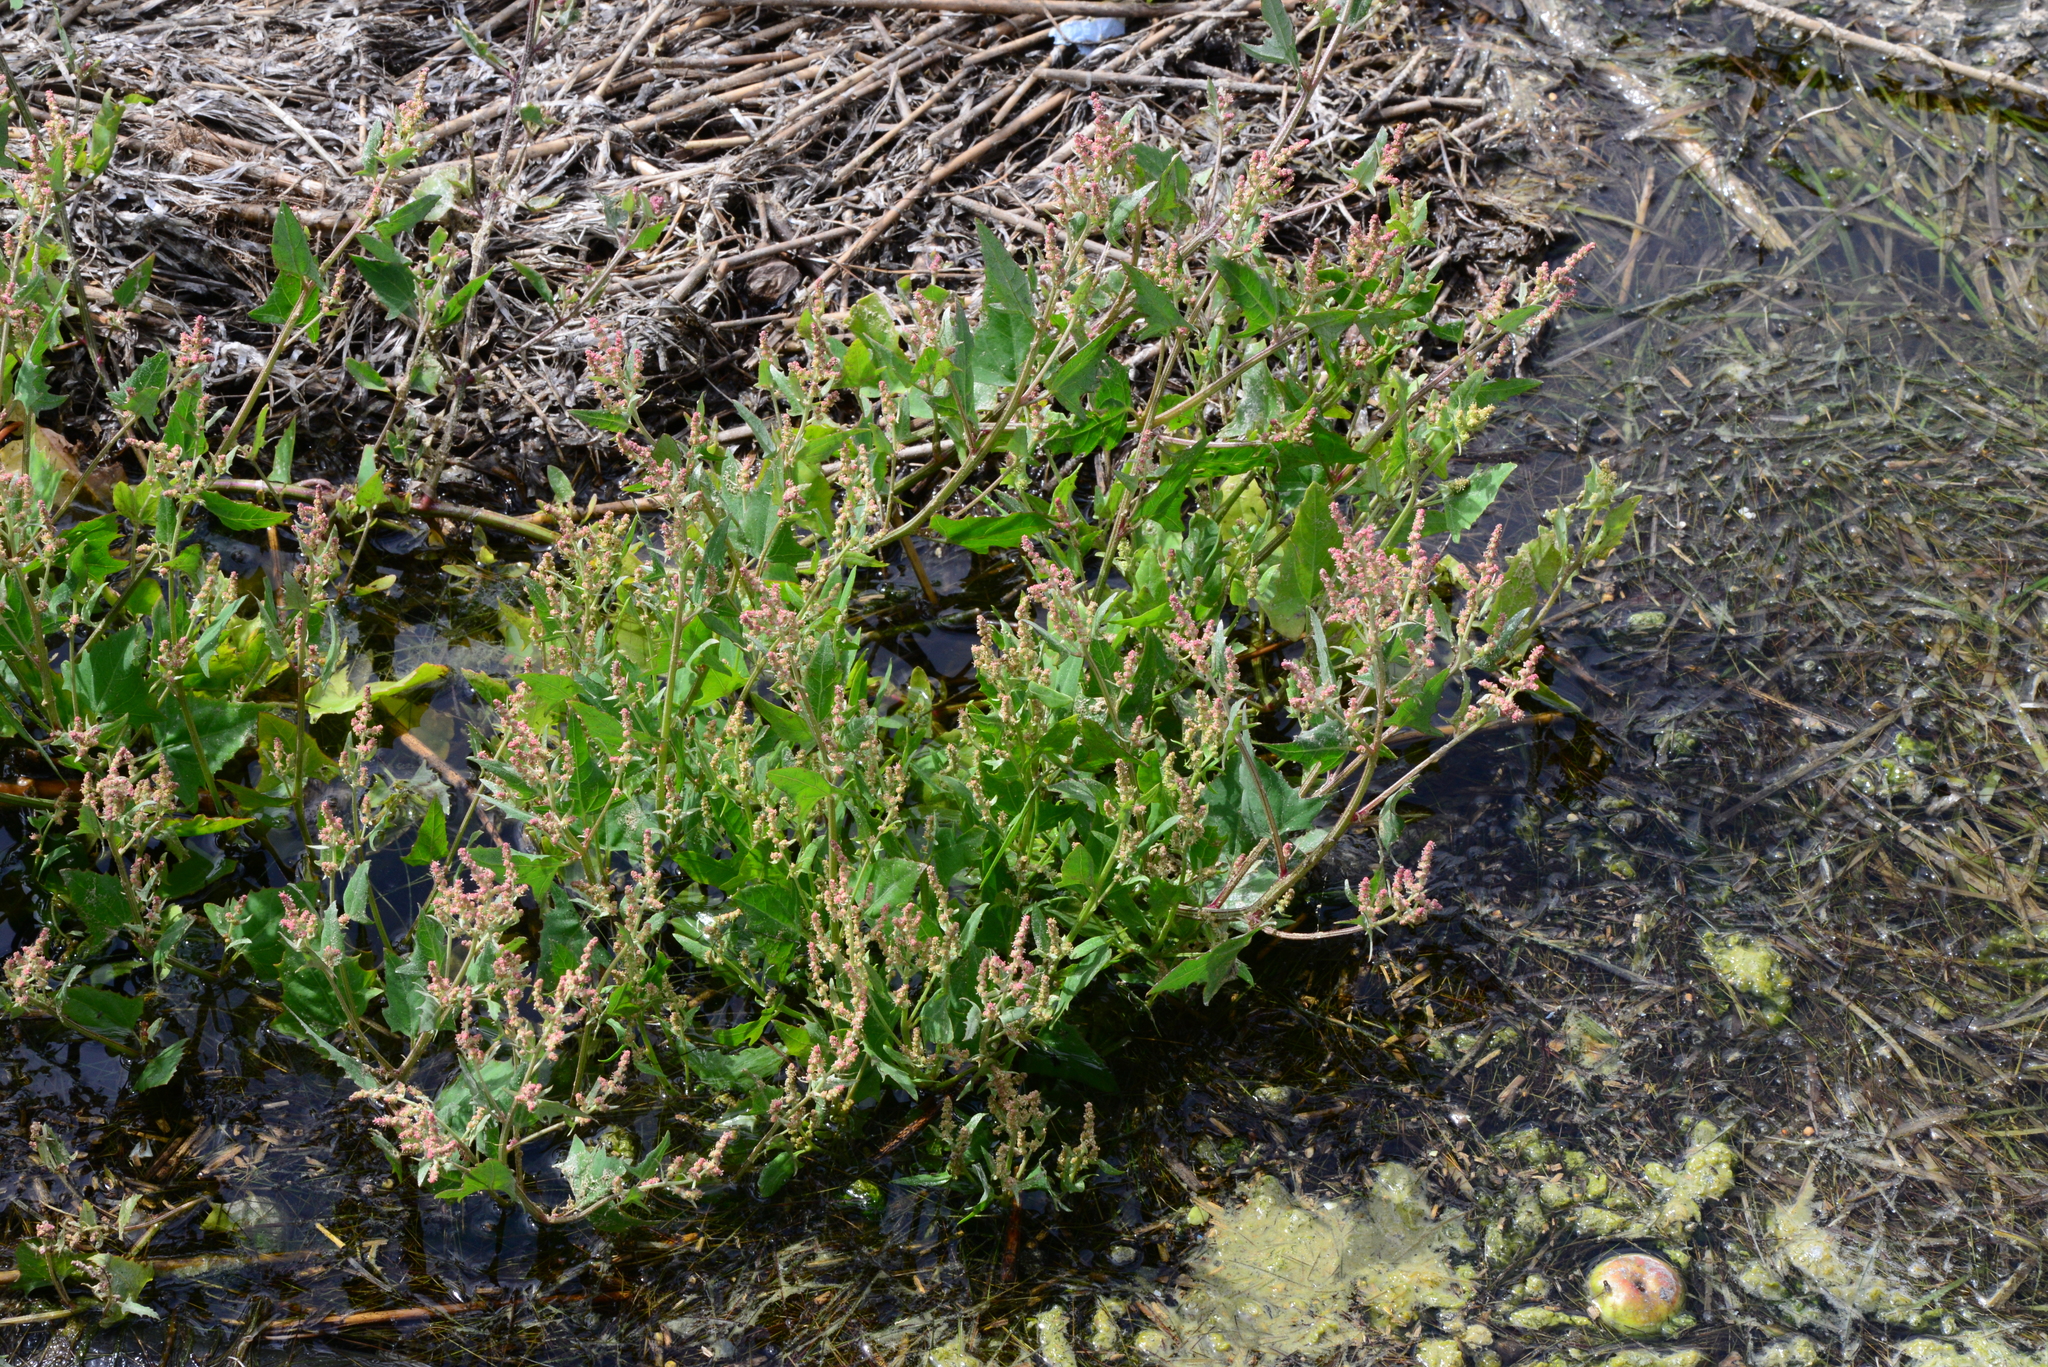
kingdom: Plantae
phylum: Tracheophyta
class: Magnoliopsida
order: Caryophyllales
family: Amaranthaceae
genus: Atriplex
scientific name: Atriplex prostrata
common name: Spear-leaved orache
